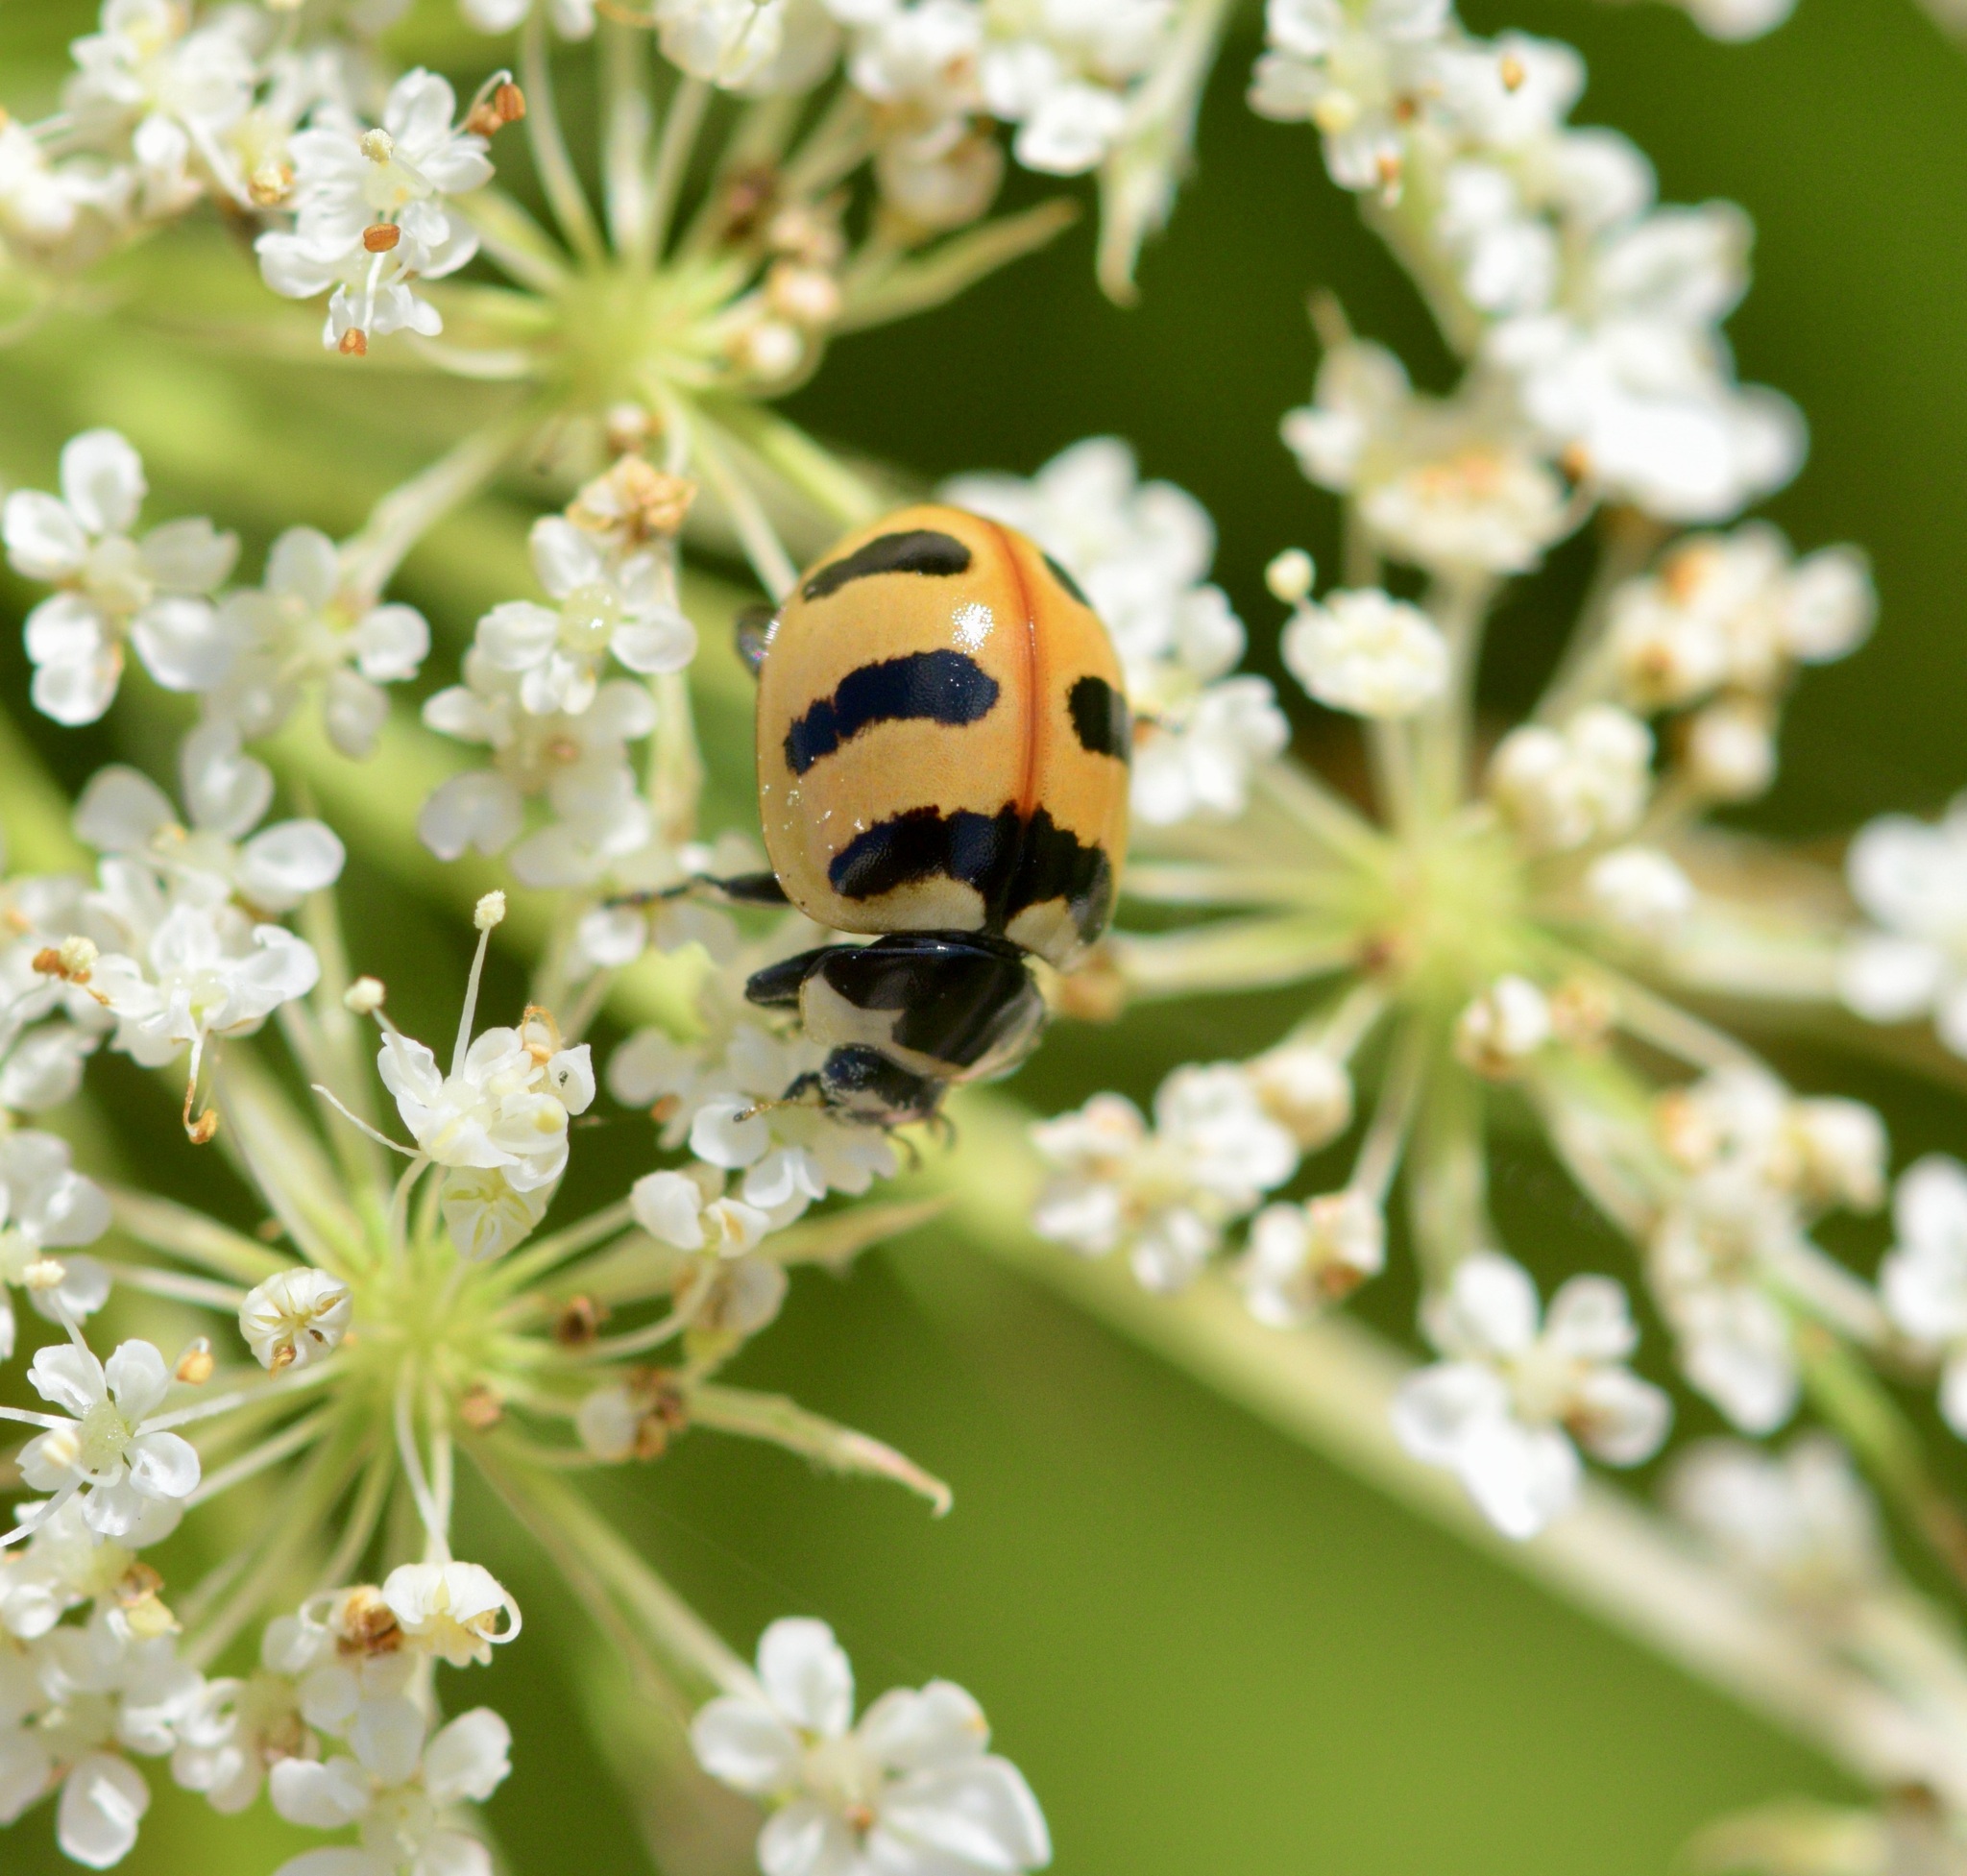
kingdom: Animalia
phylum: Arthropoda
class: Insecta
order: Coleoptera
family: Coccinellidae
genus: Coccinella
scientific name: Coccinella trifasciata
